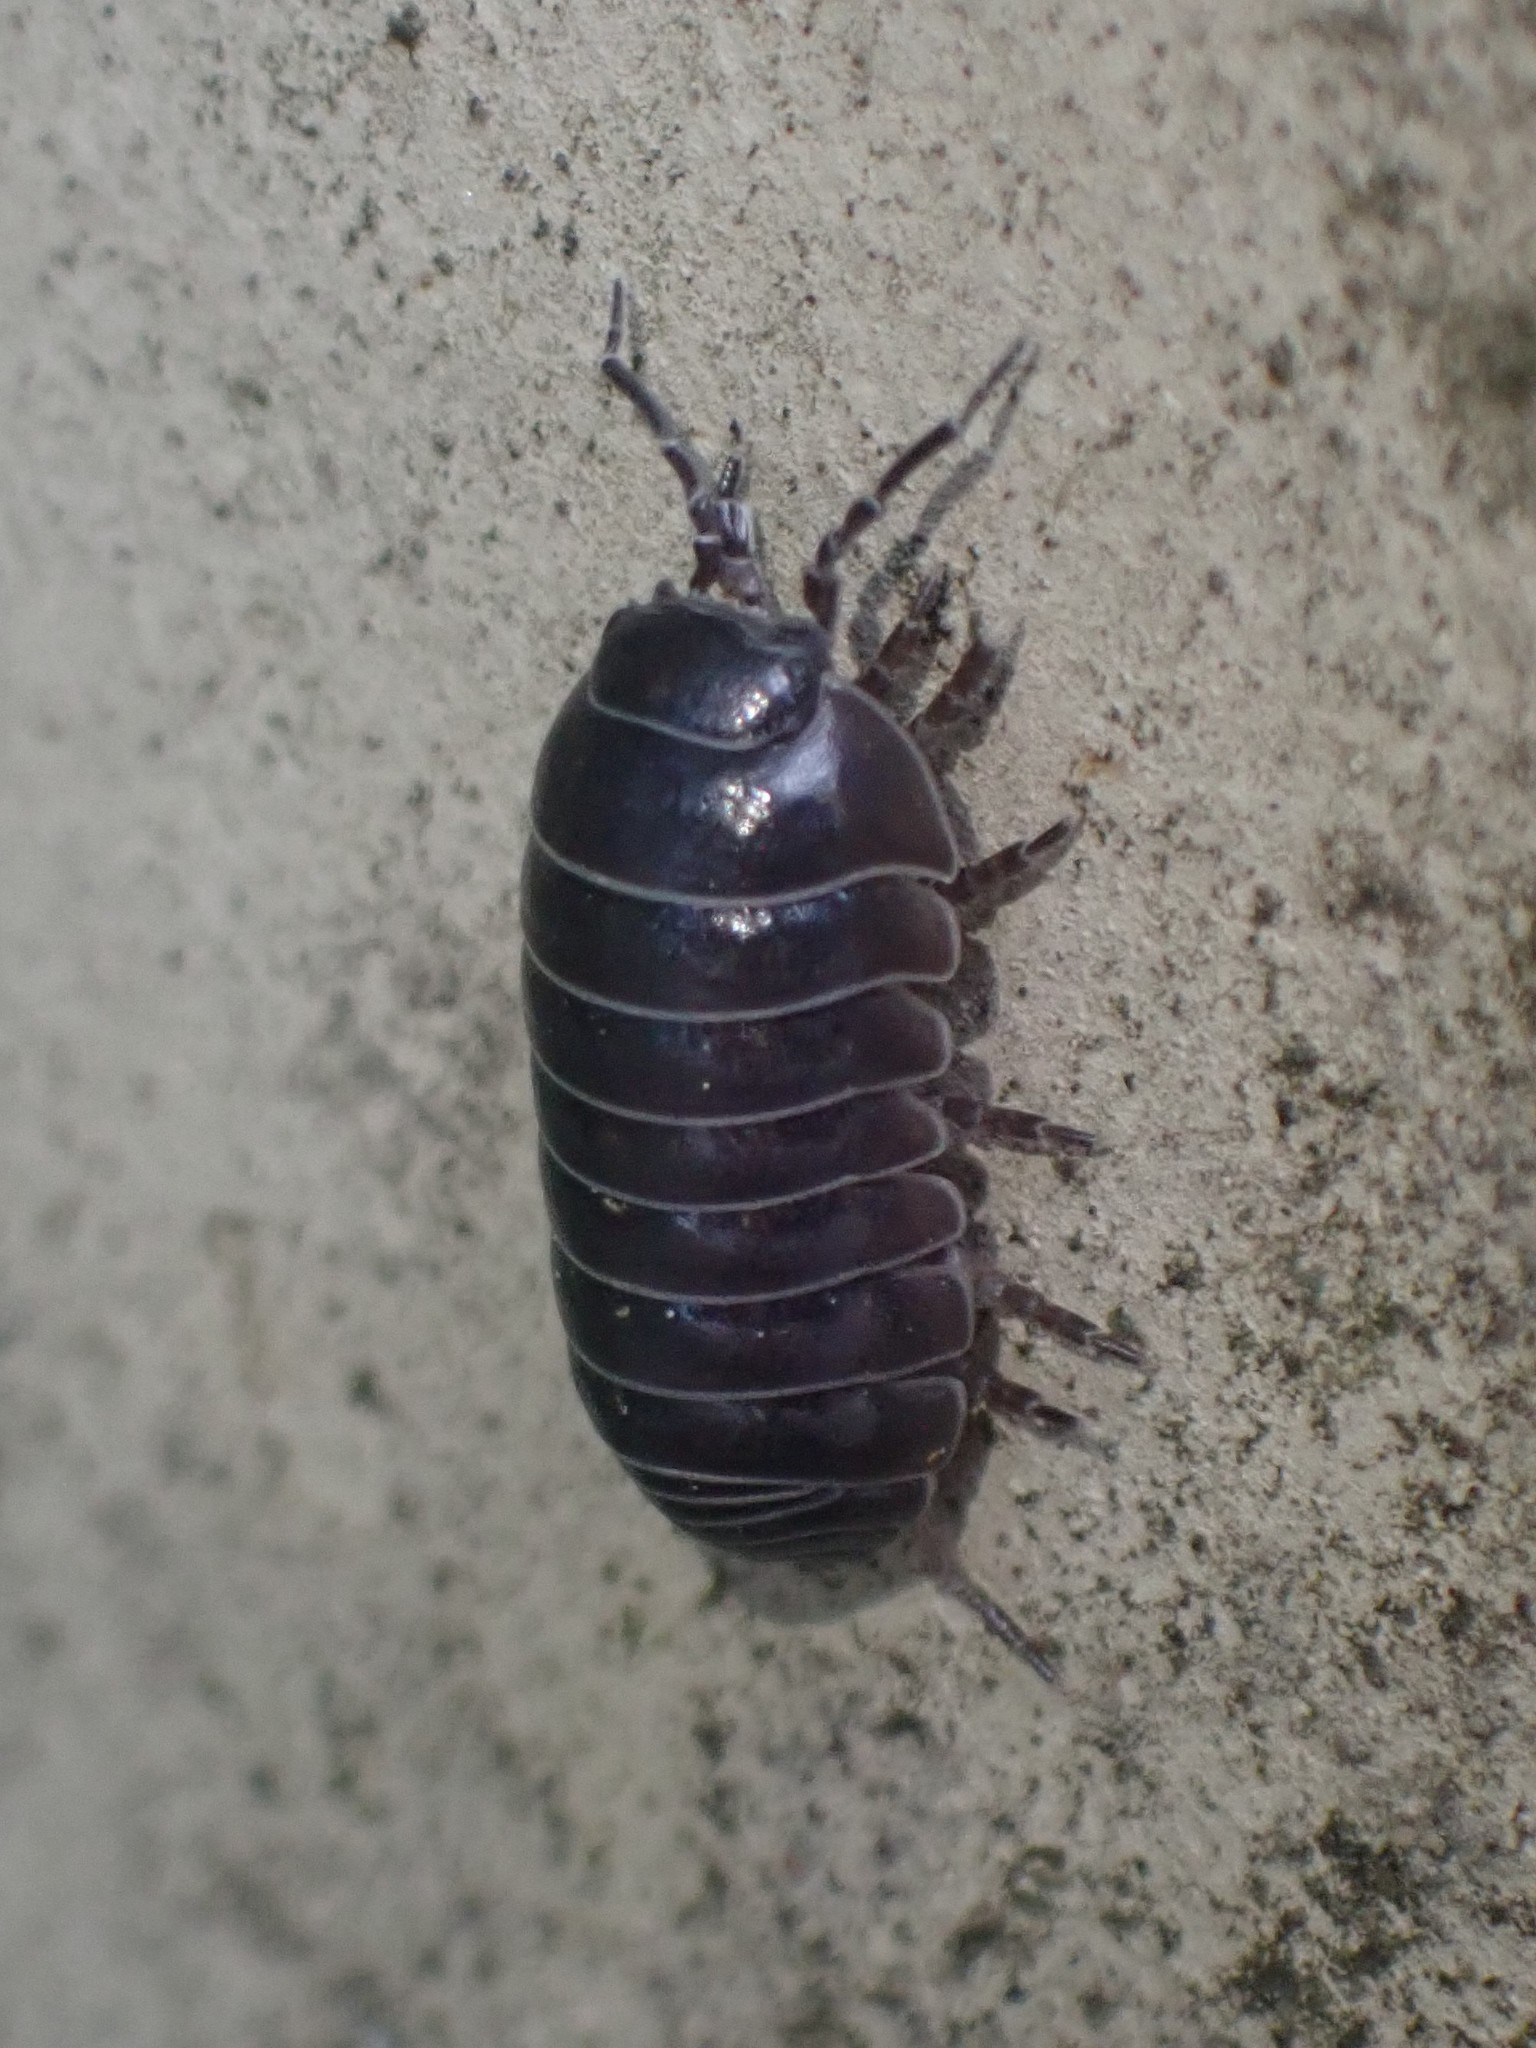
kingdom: Animalia
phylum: Arthropoda
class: Malacostraca
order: Isopoda
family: Armadillidiidae
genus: Armadillidium
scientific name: Armadillidium vulgare
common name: Common pill woodlouse
